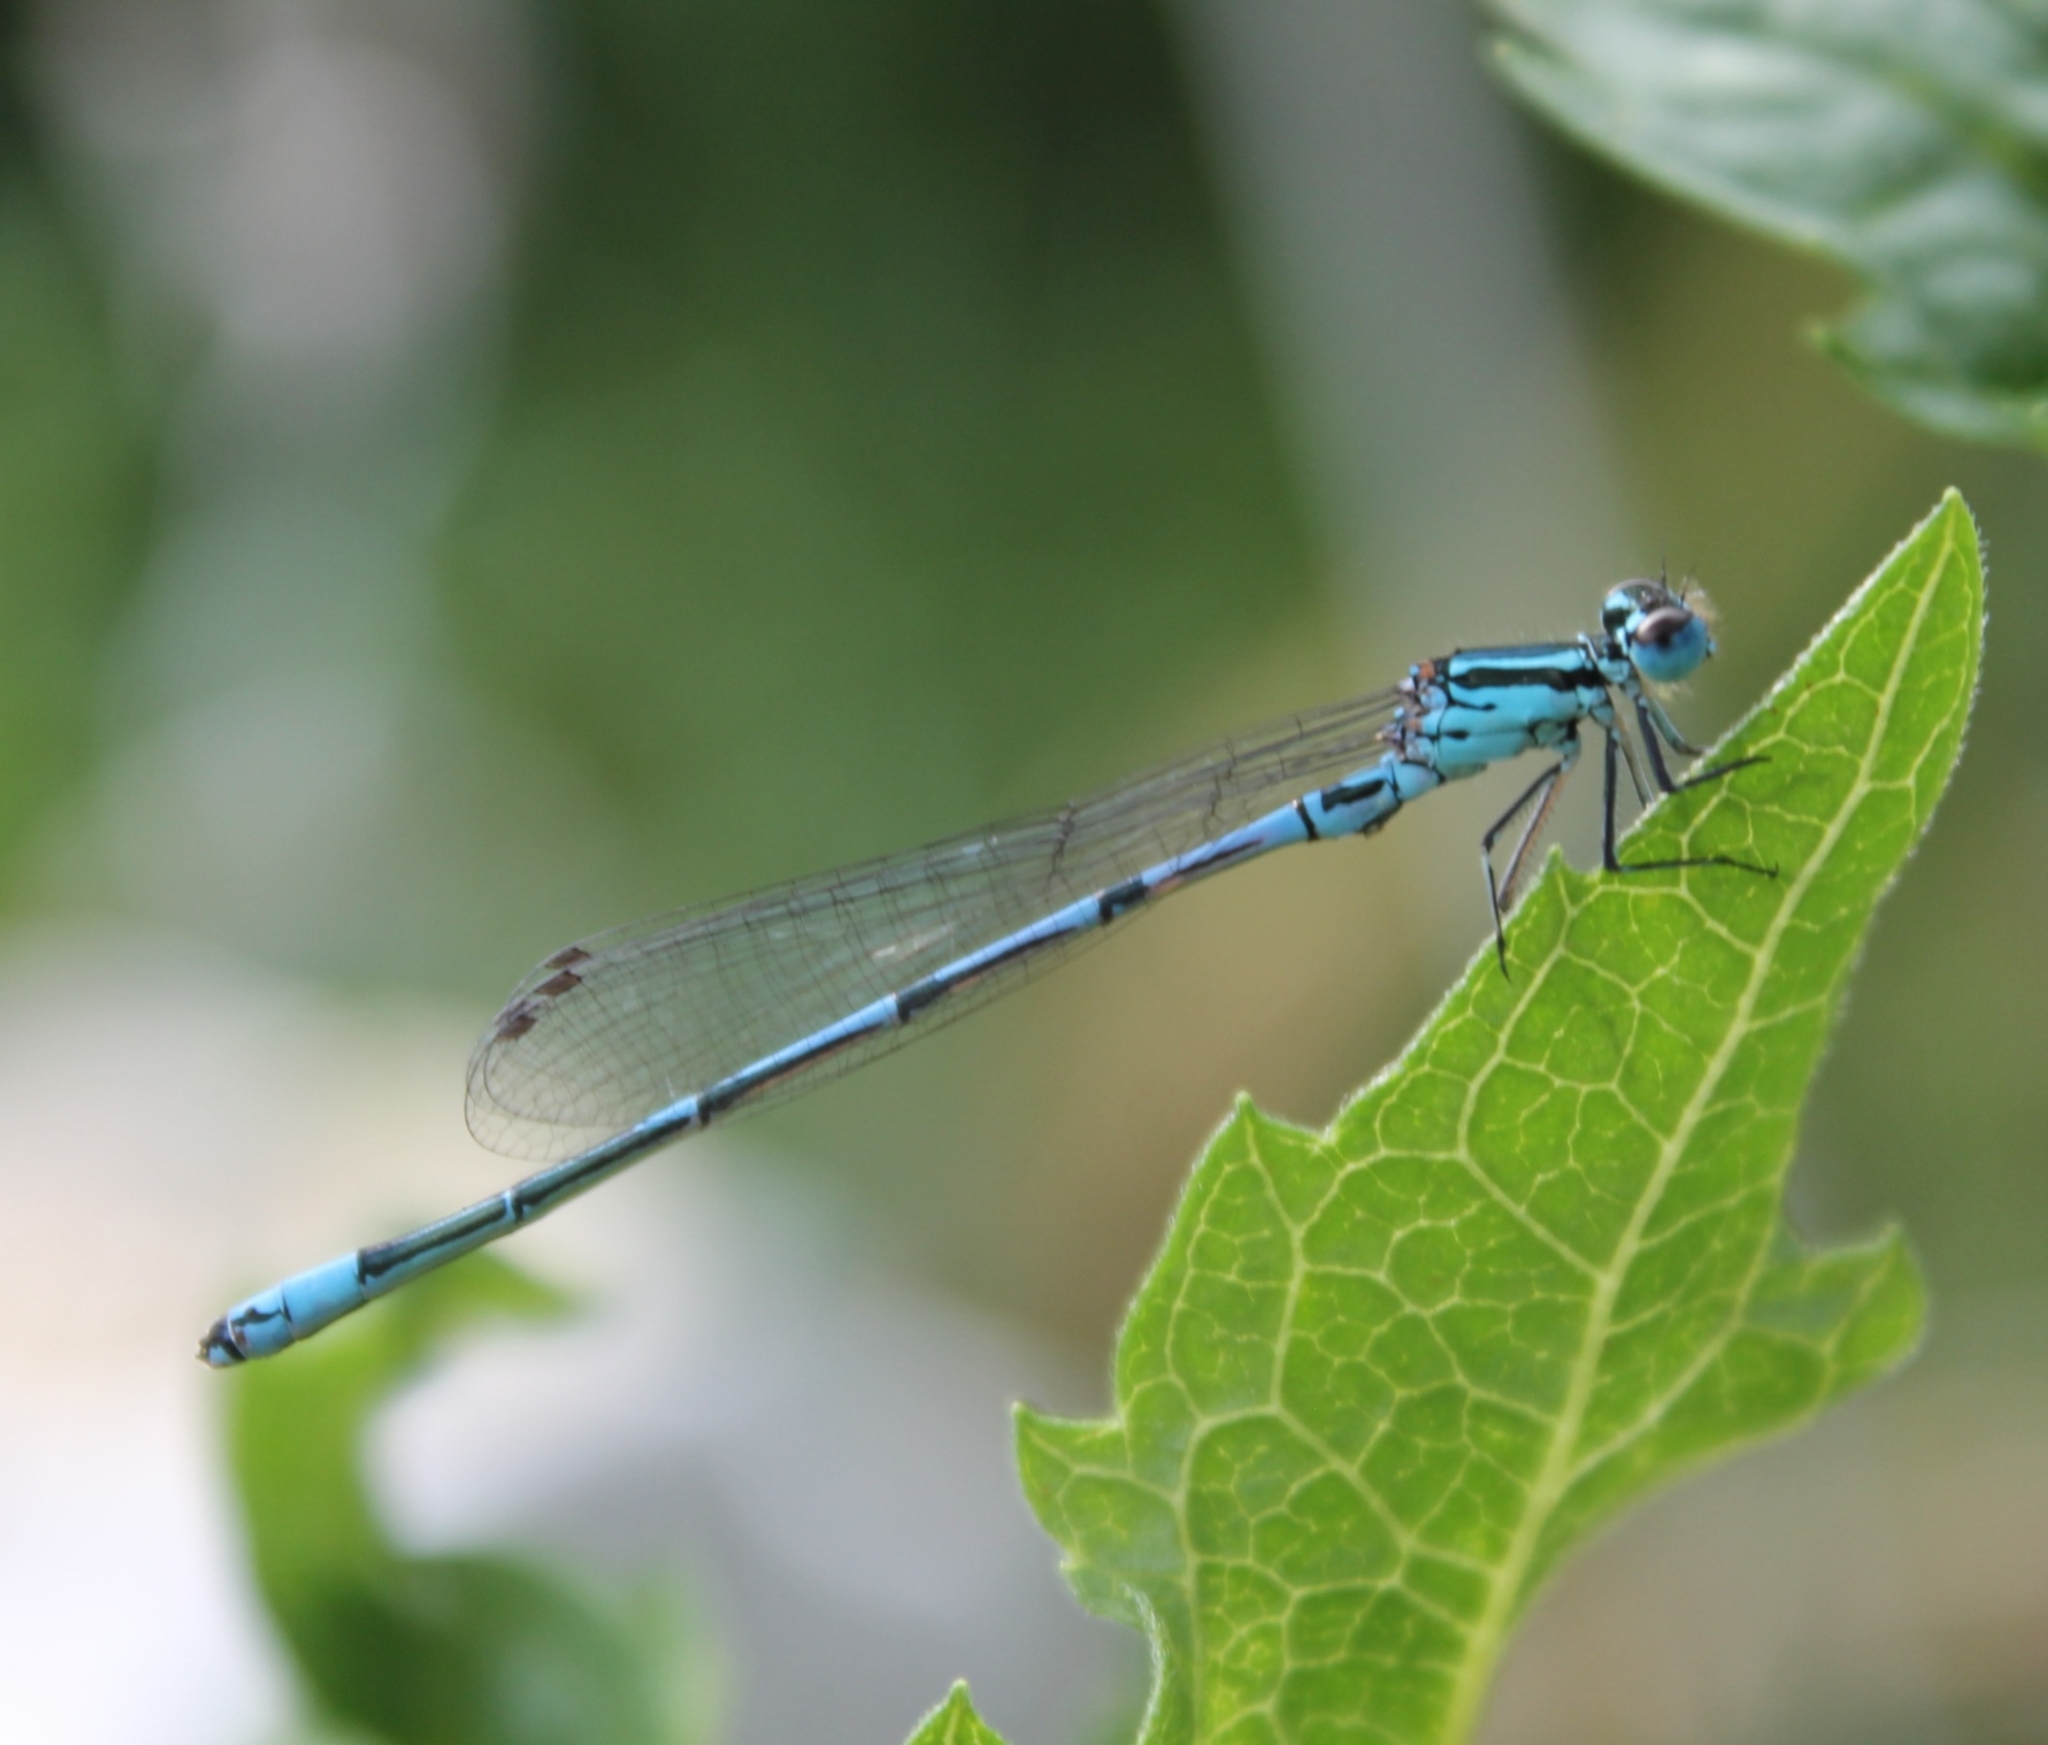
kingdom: Animalia
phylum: Arthropoda
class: Insecta
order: Odonata
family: Coenagrionidae
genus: Coenagrion
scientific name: Coenagrion puella
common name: Azure damselfly
